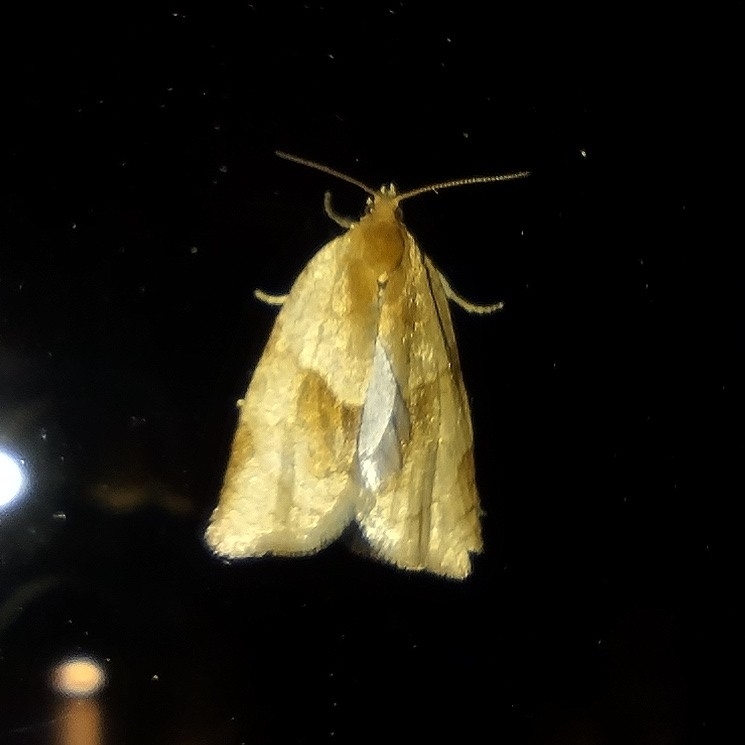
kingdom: Animalia
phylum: Arthropoda
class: Insecta
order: Lepidoptera
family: Tortricidae
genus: Clepsis
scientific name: Clepsis rurinana
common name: Pale twist
